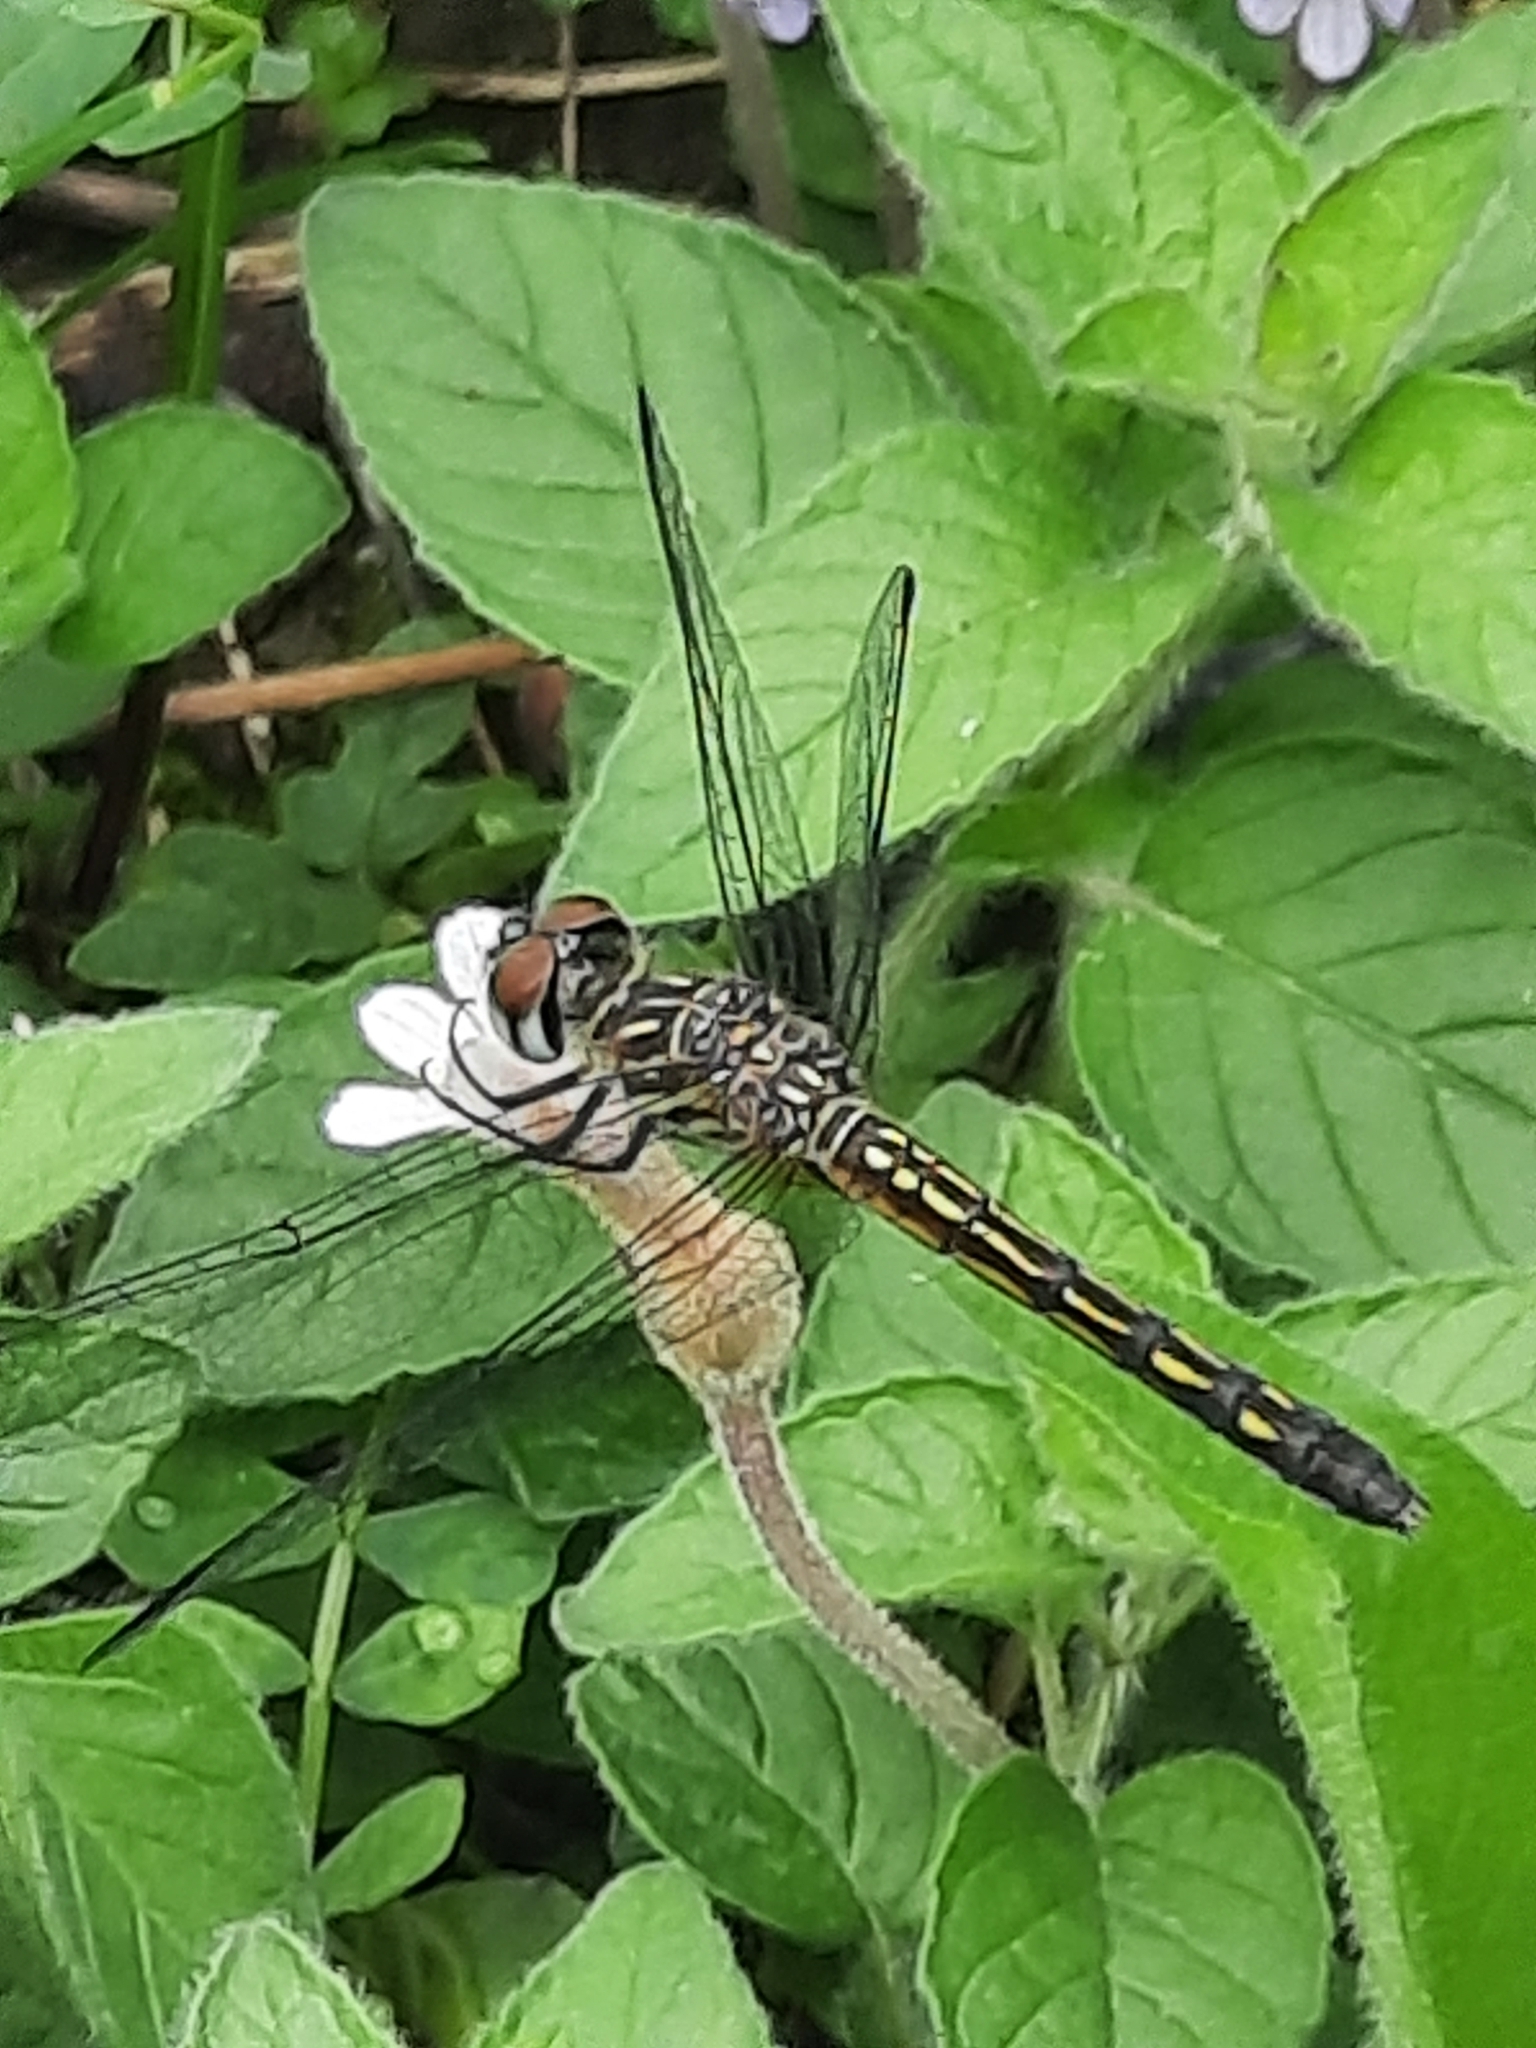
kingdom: Animalia
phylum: Arthropoda
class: Insecta
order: Odonata
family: Libellulidae
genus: Pachydiplax
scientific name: Pachydiplax longipennis
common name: Blue dasher
